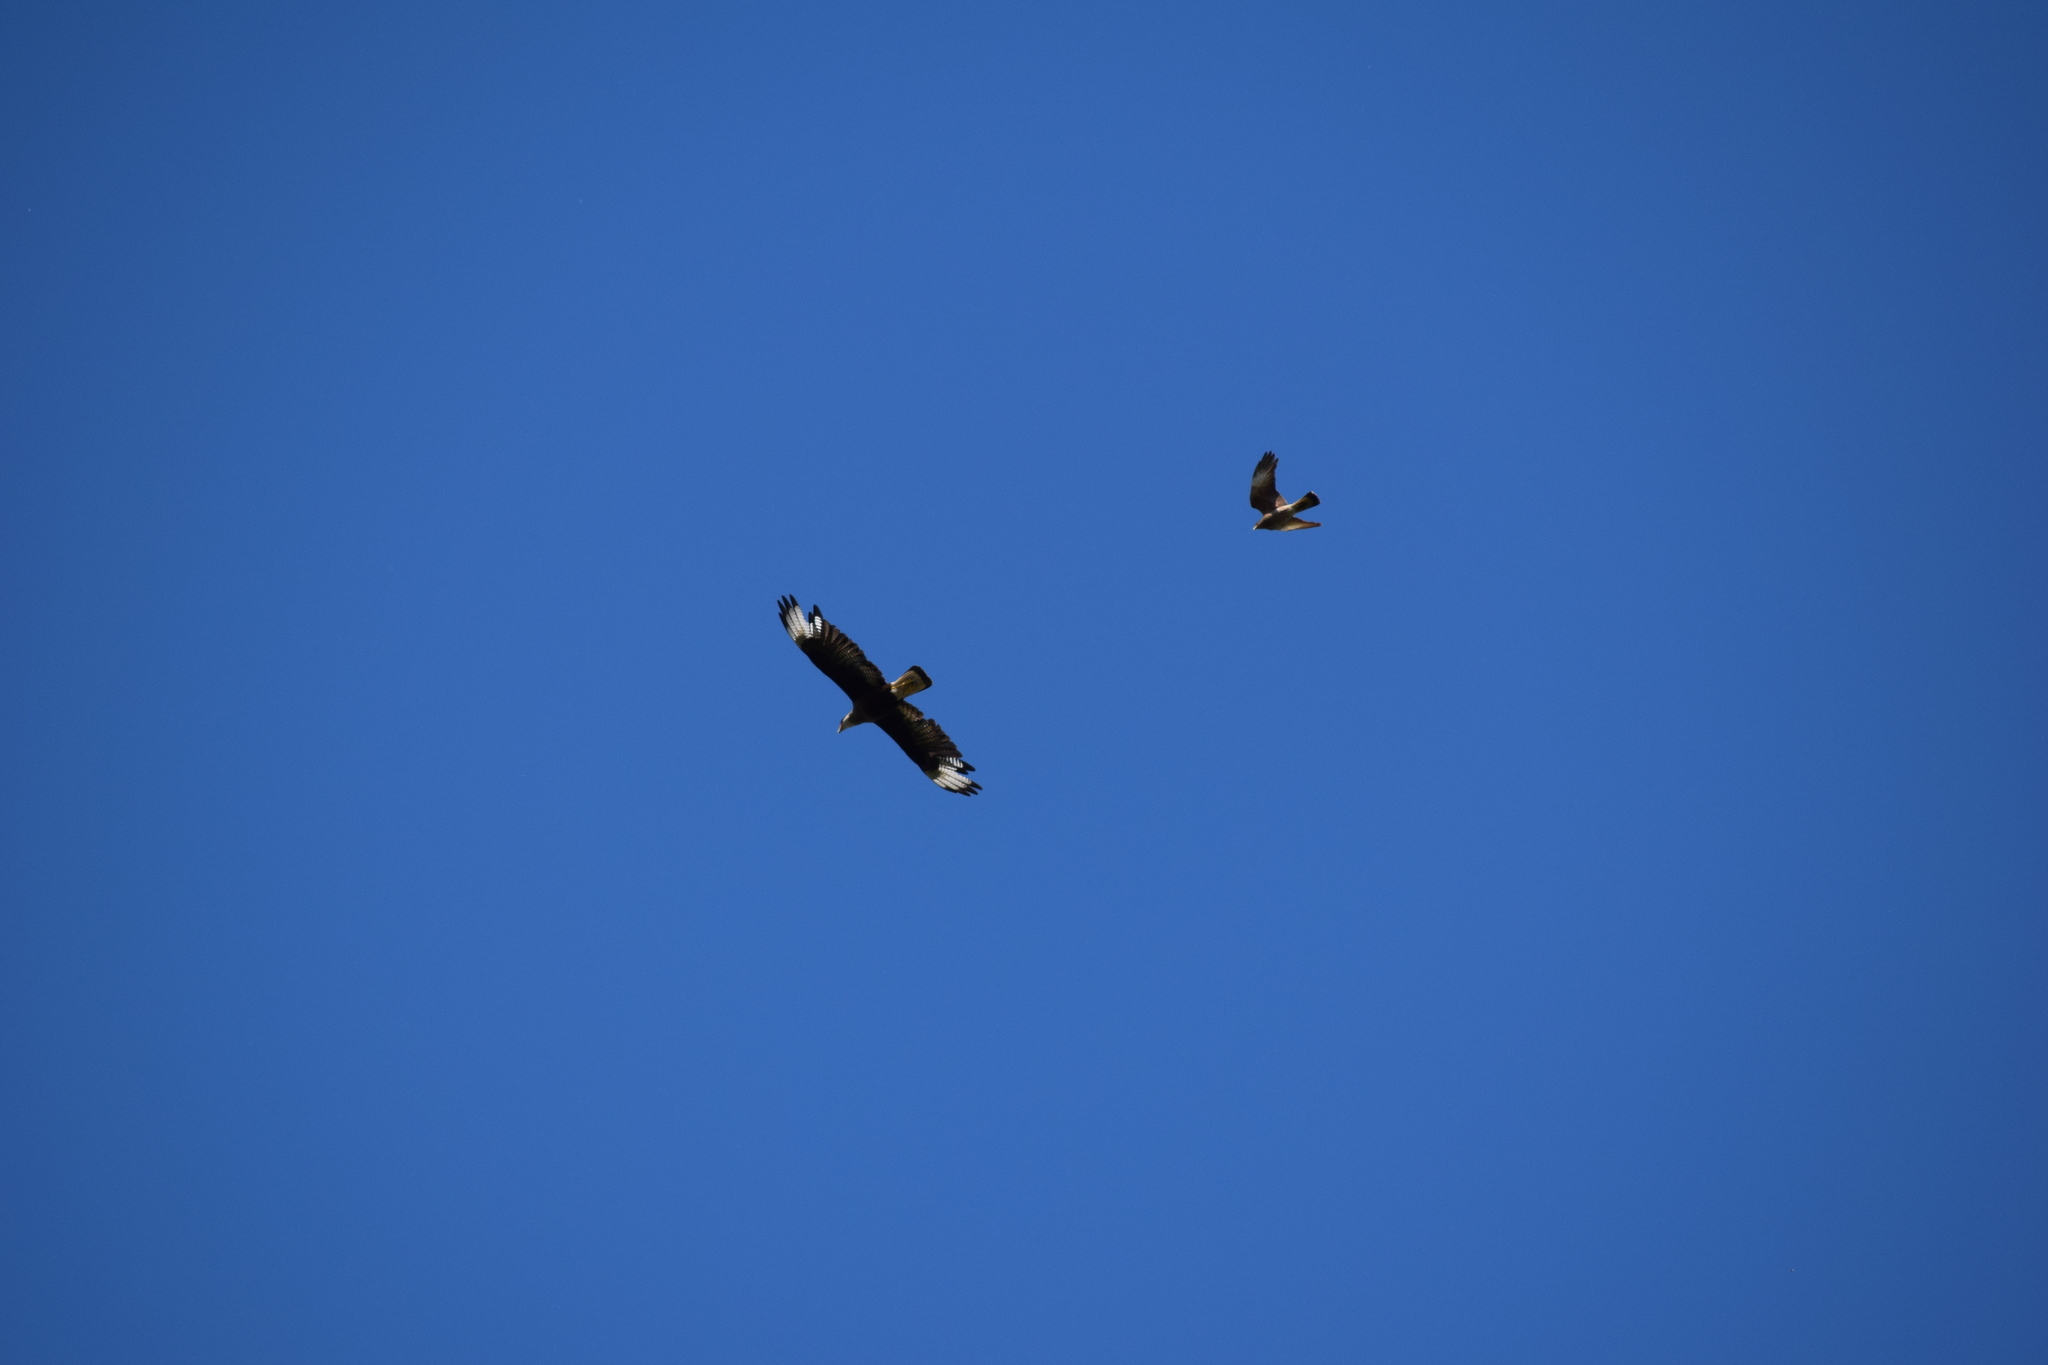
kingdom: Animalia
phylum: Chordata
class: Aves
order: Falconiformes
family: Falconidae
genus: Daptrius
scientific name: Daptrius
